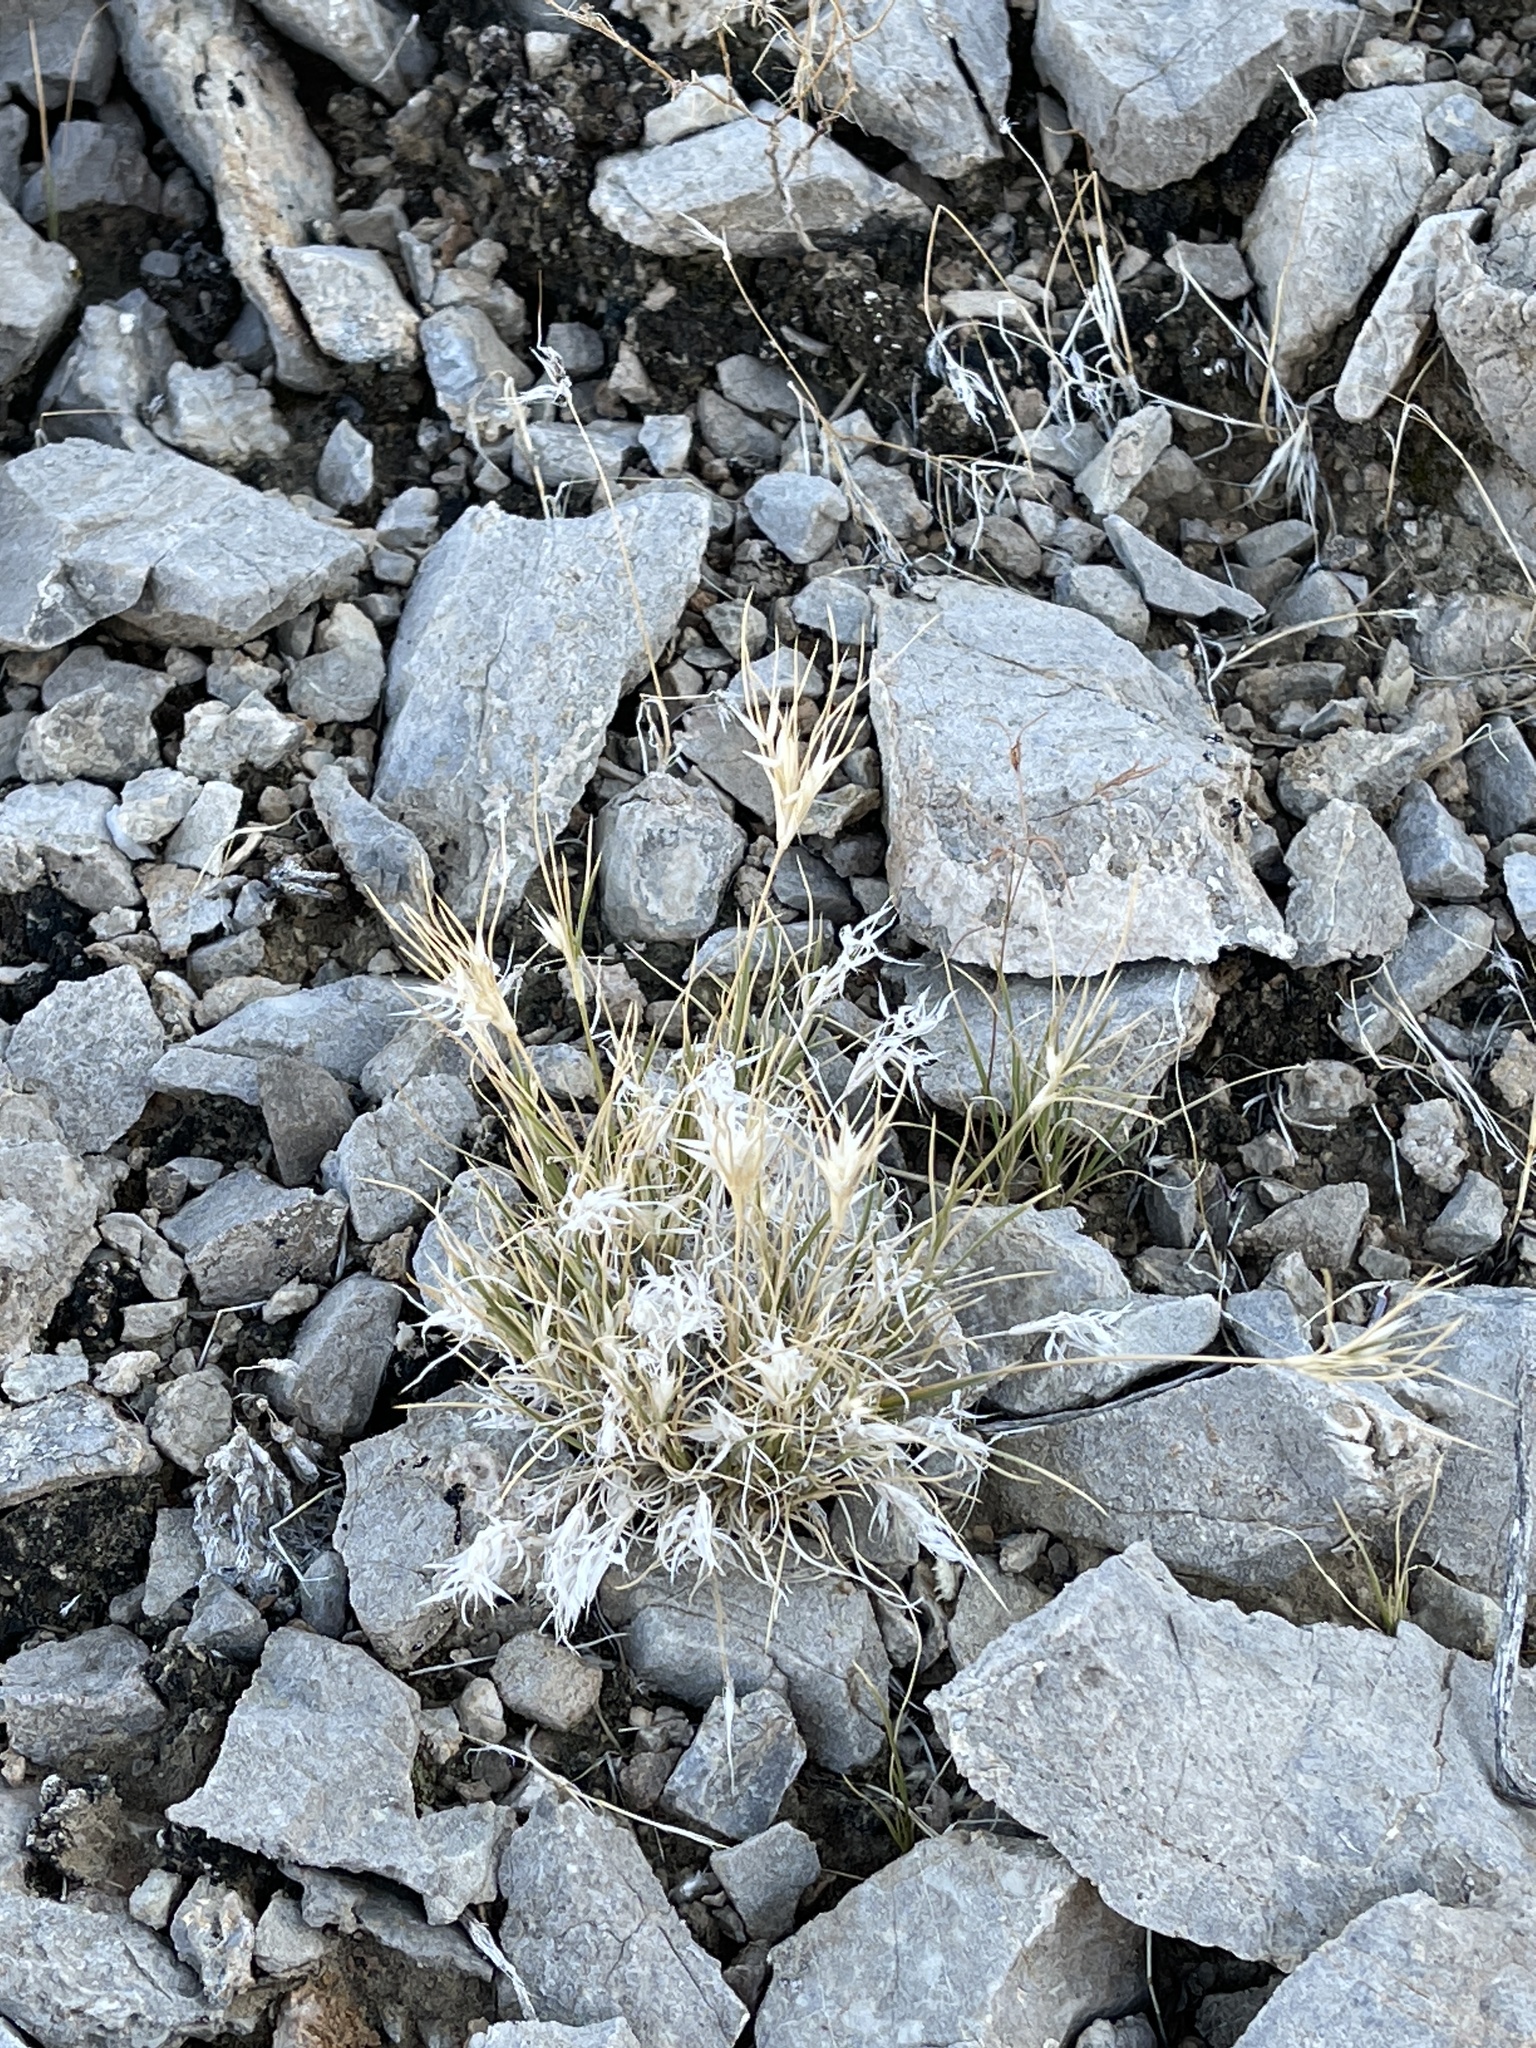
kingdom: Plantae
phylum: Tracheophyta
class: Liliopsida
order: Poales
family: Poaceae
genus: Dasyochloa
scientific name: Dasyochloa pulchella
